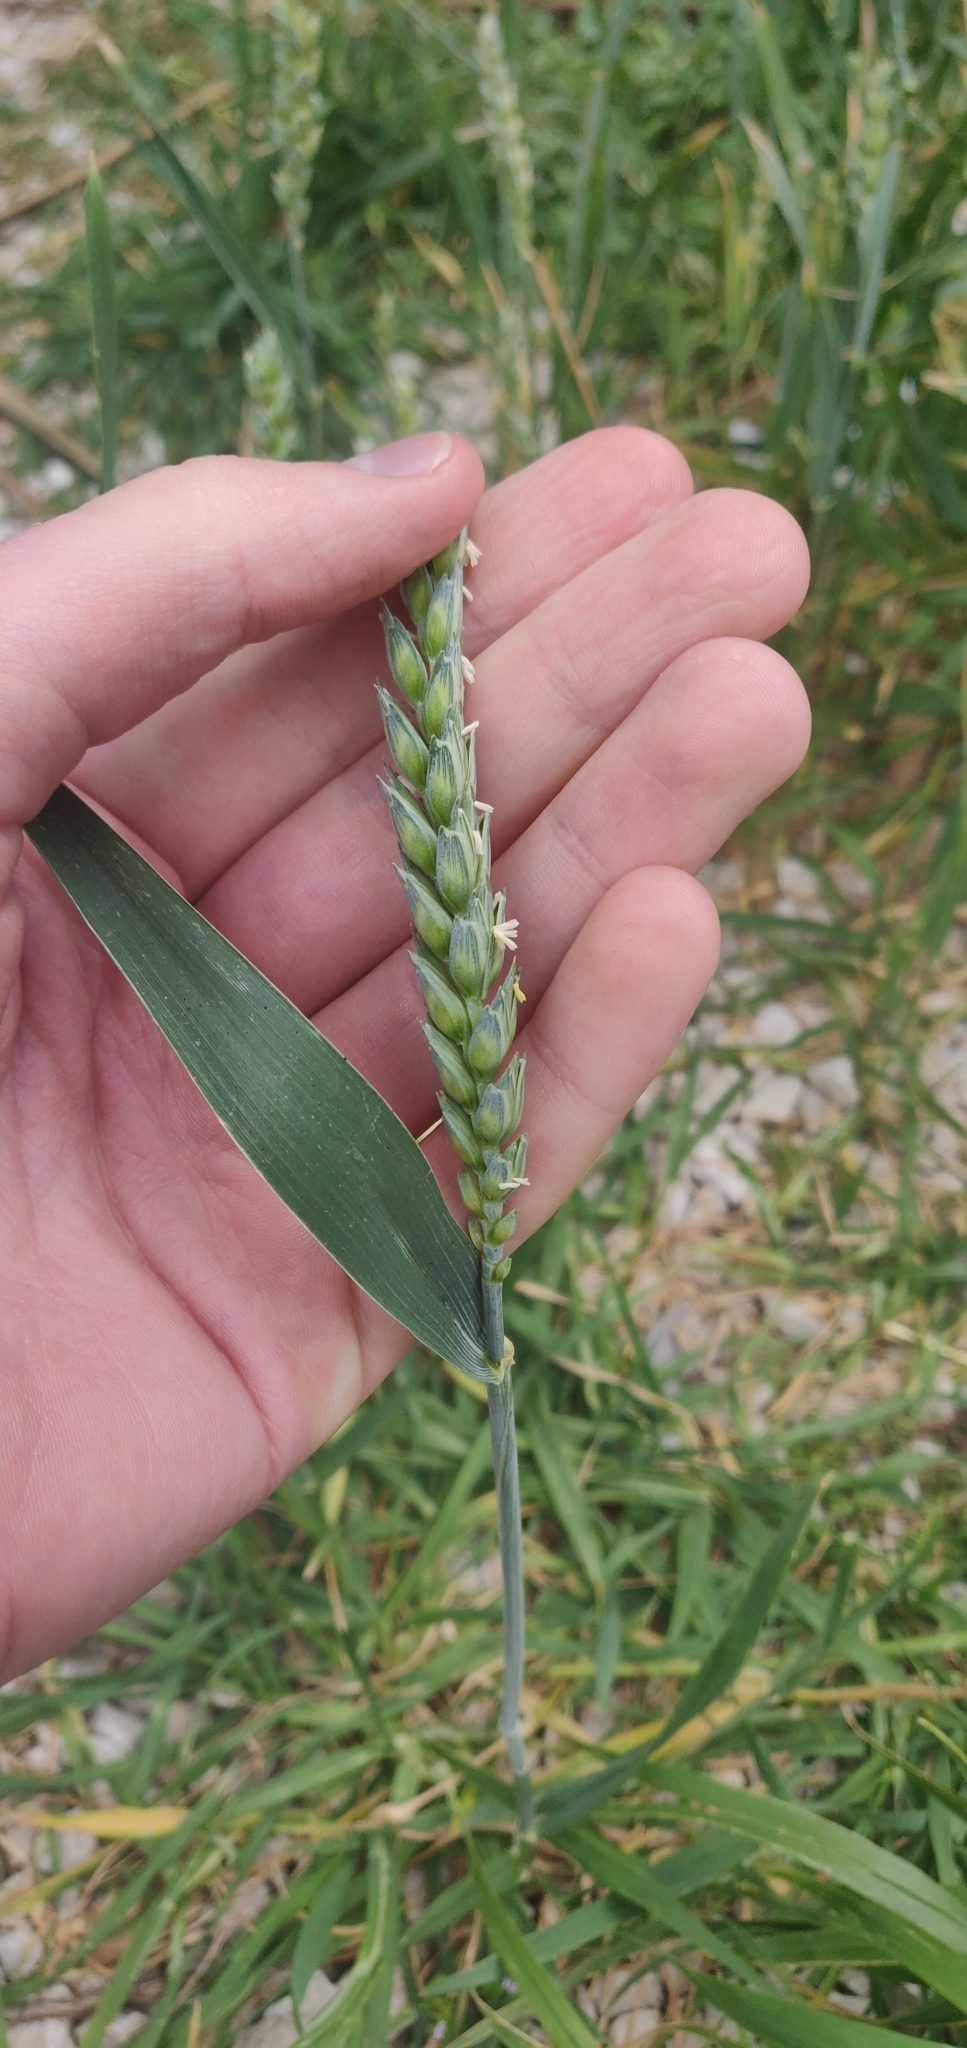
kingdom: Plantae
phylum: Tracheophyta
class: Liliopsida
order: Poales
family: Poaceae
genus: Triticum
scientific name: Triticum aestivum
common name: Common wheat
